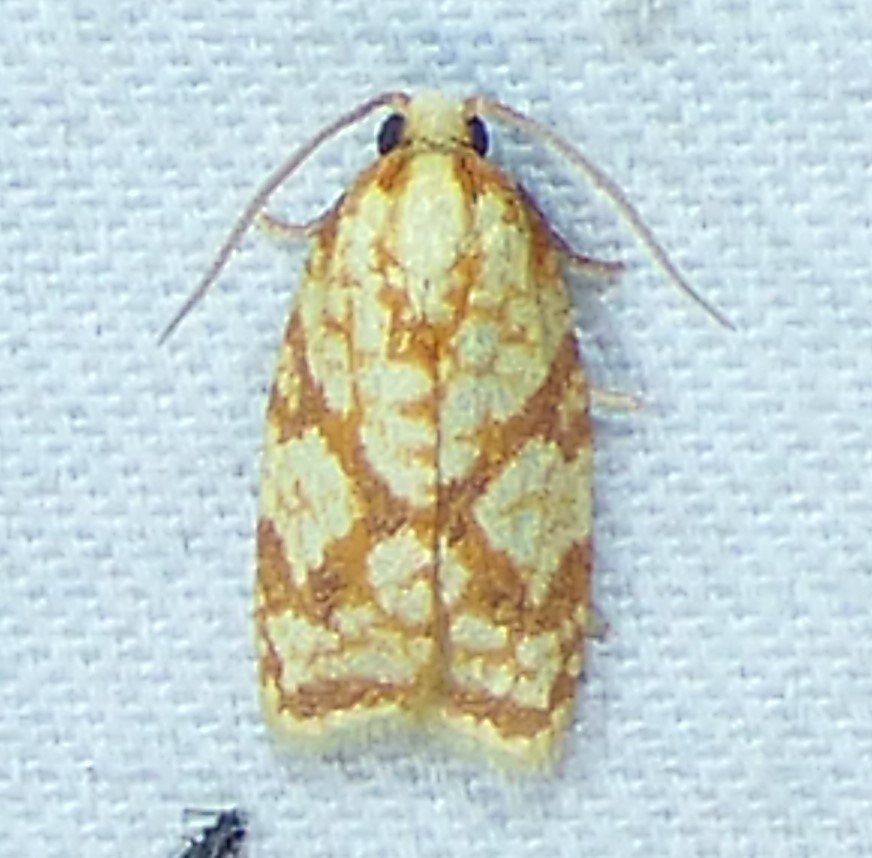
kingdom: Animalia
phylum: Arthropoda
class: Insecta
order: Lepidoptera
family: Tortricidae
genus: Sparganothis
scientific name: Sparganothis sulfureana
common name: Sparganothis fruitworm moth
